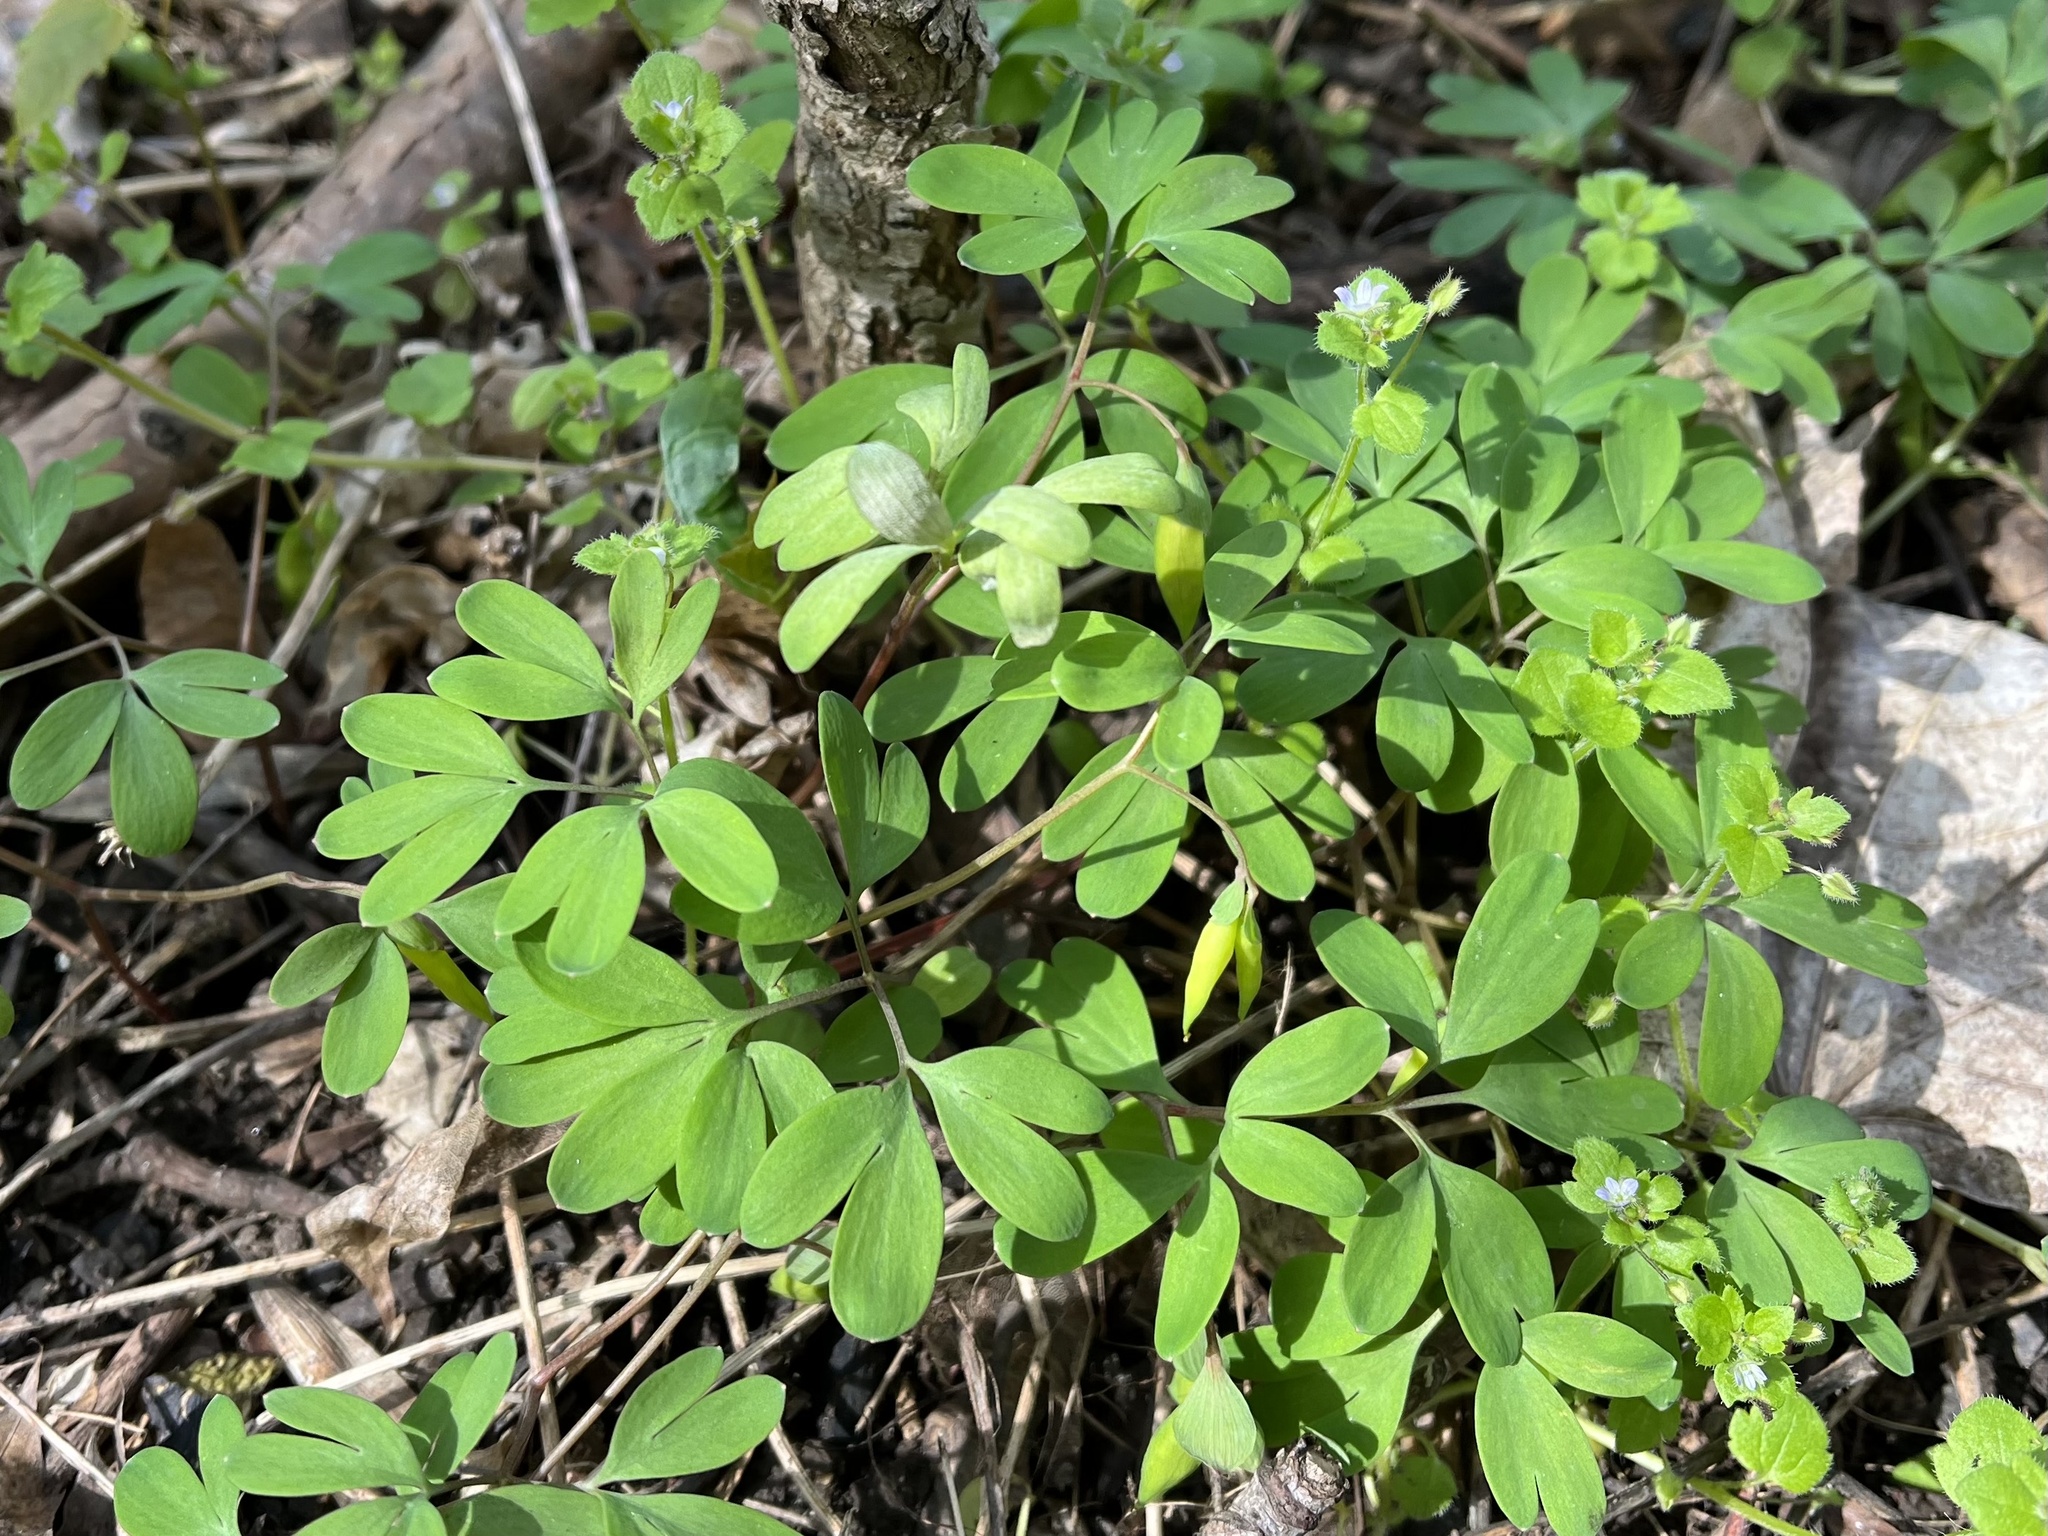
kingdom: Plantae
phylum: Tracheophyta
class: Magnoliopsida
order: Ranunculales
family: Papaveraceae
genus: Corydalis
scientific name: Corydalis intermedia
